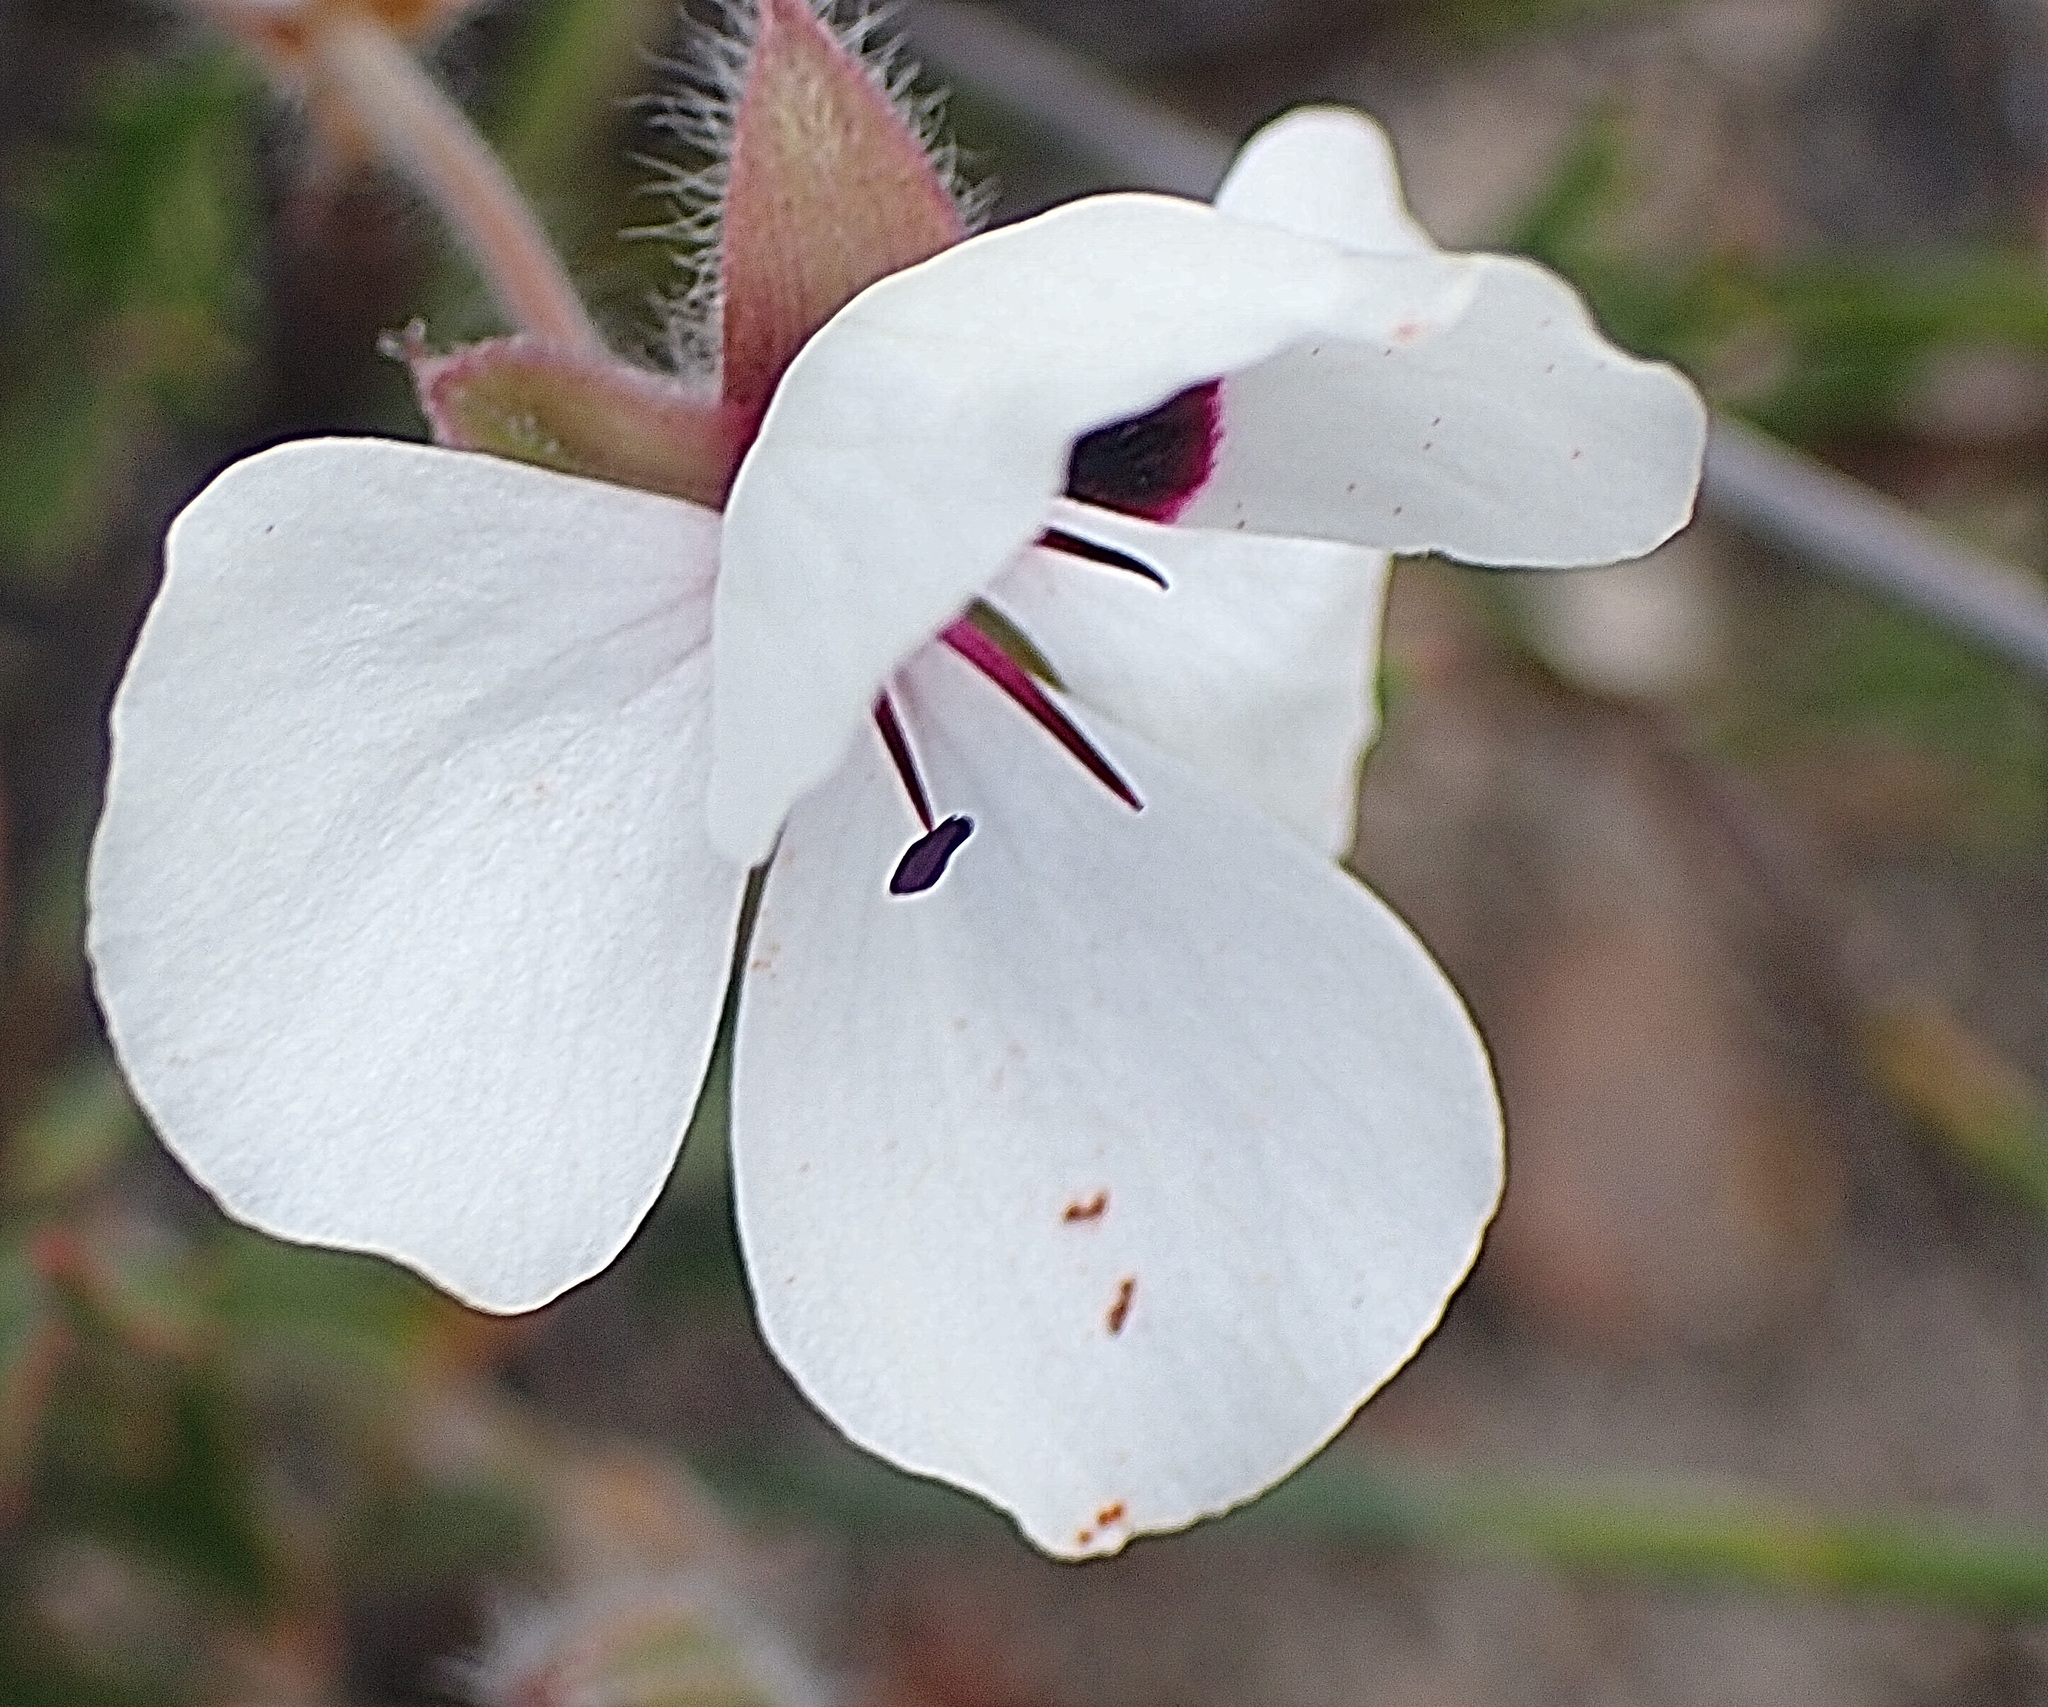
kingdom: Plantae
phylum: Tracheophyta
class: Magnoliopsida
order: Geraniales
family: Geraniaceae
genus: Pelargonium
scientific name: Pelargonium tricolor
